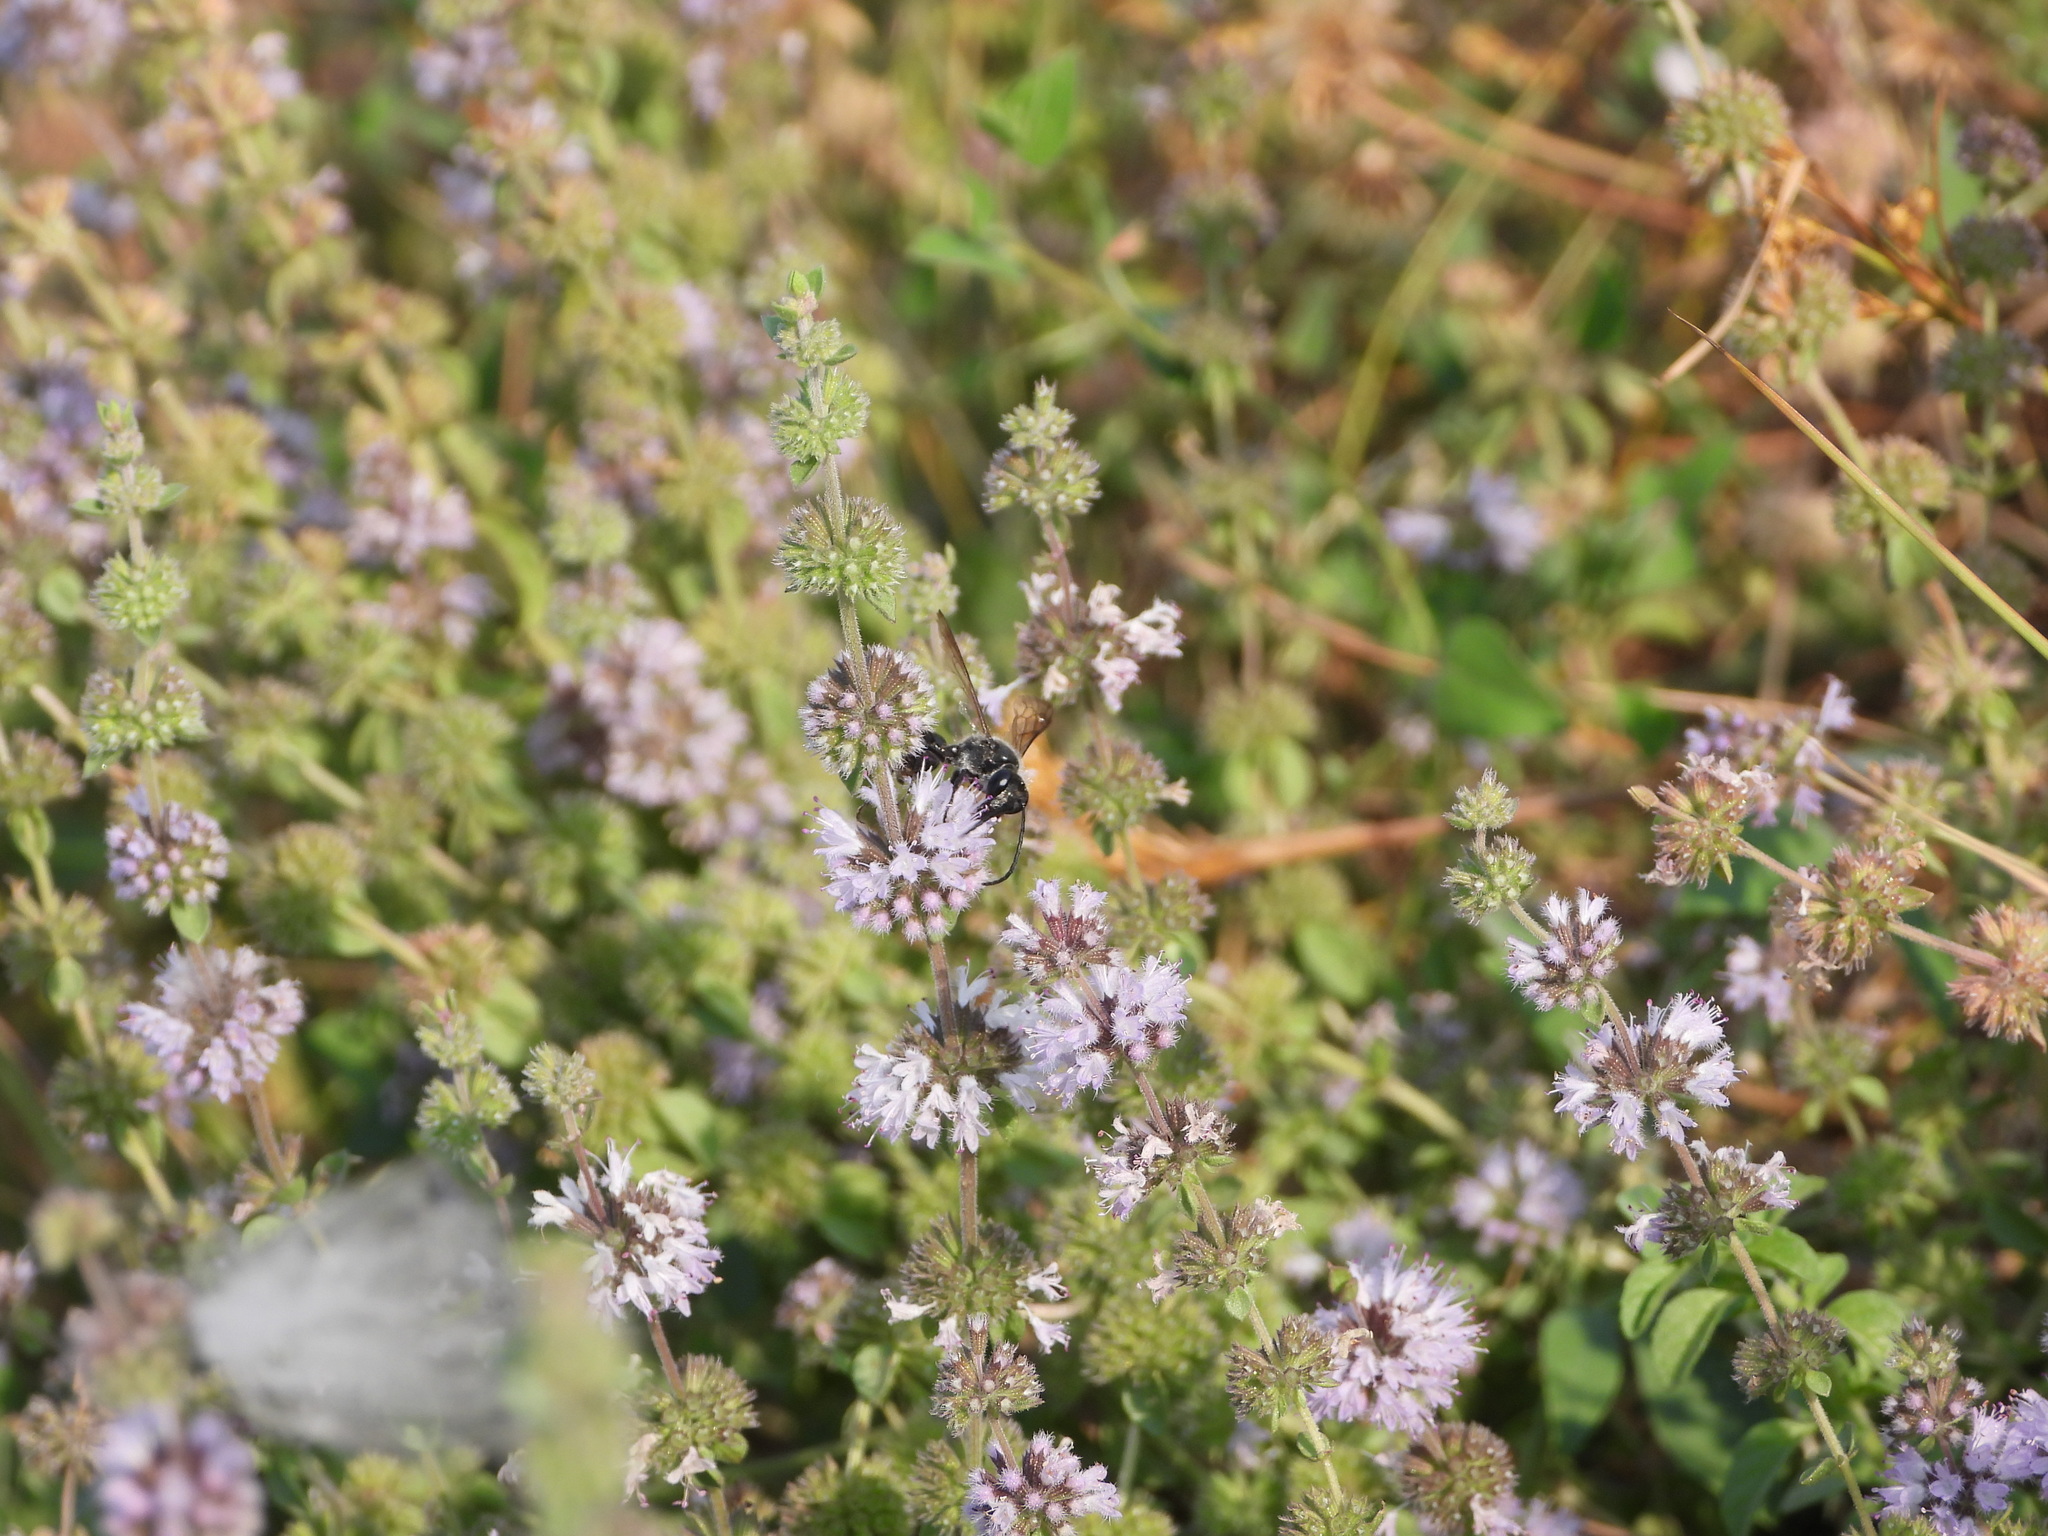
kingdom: Animalia
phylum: Arthropoda
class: Insecta
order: Hymenoptera
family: Sphecidae
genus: Isodontia
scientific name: Isodontia mexicana
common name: Mud dauber
